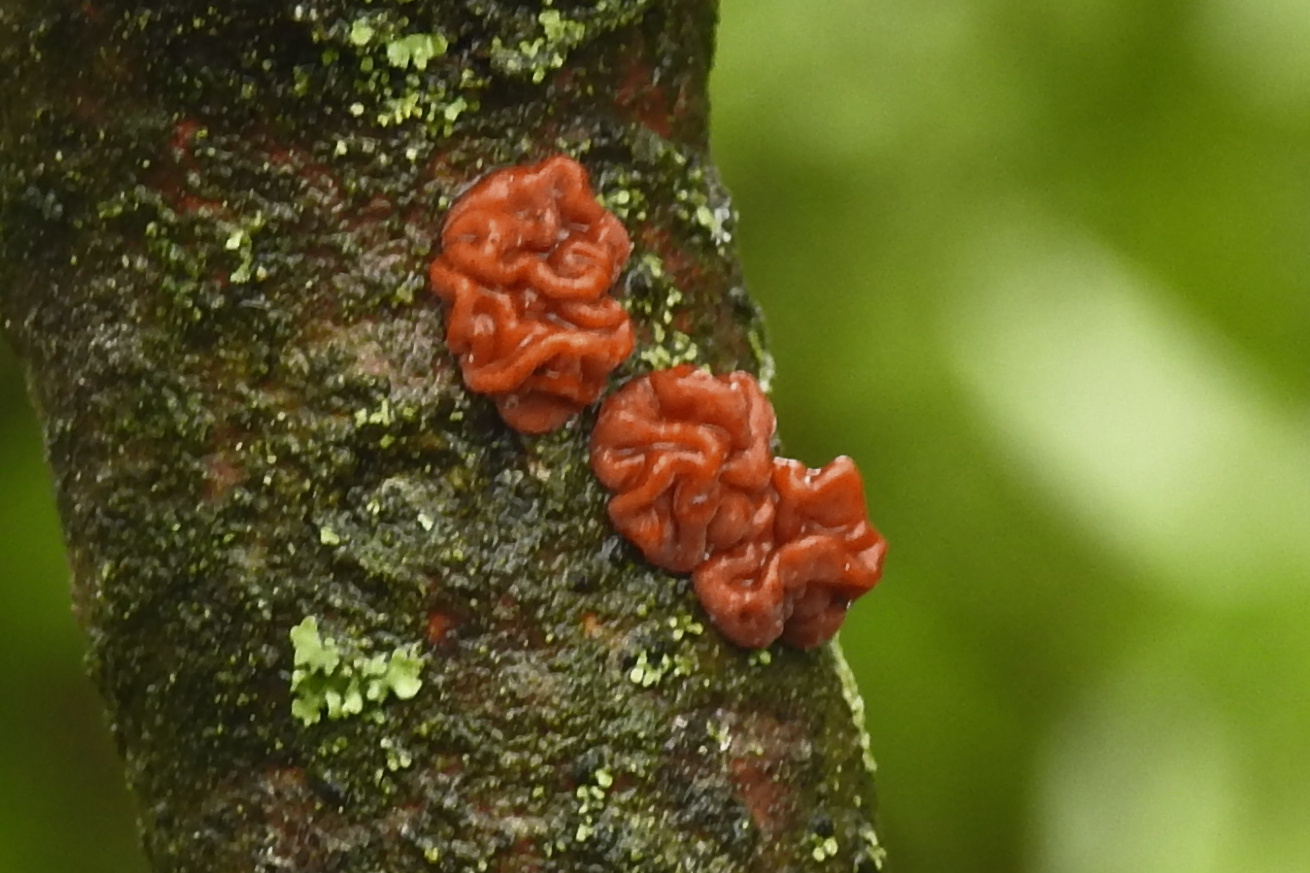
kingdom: Fungi
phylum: Basidiomycota
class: Agaricomycetes
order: Russulales
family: Peniophoraceae
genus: Peniophora
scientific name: Peniophora rufa
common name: Red tree brain fungus
